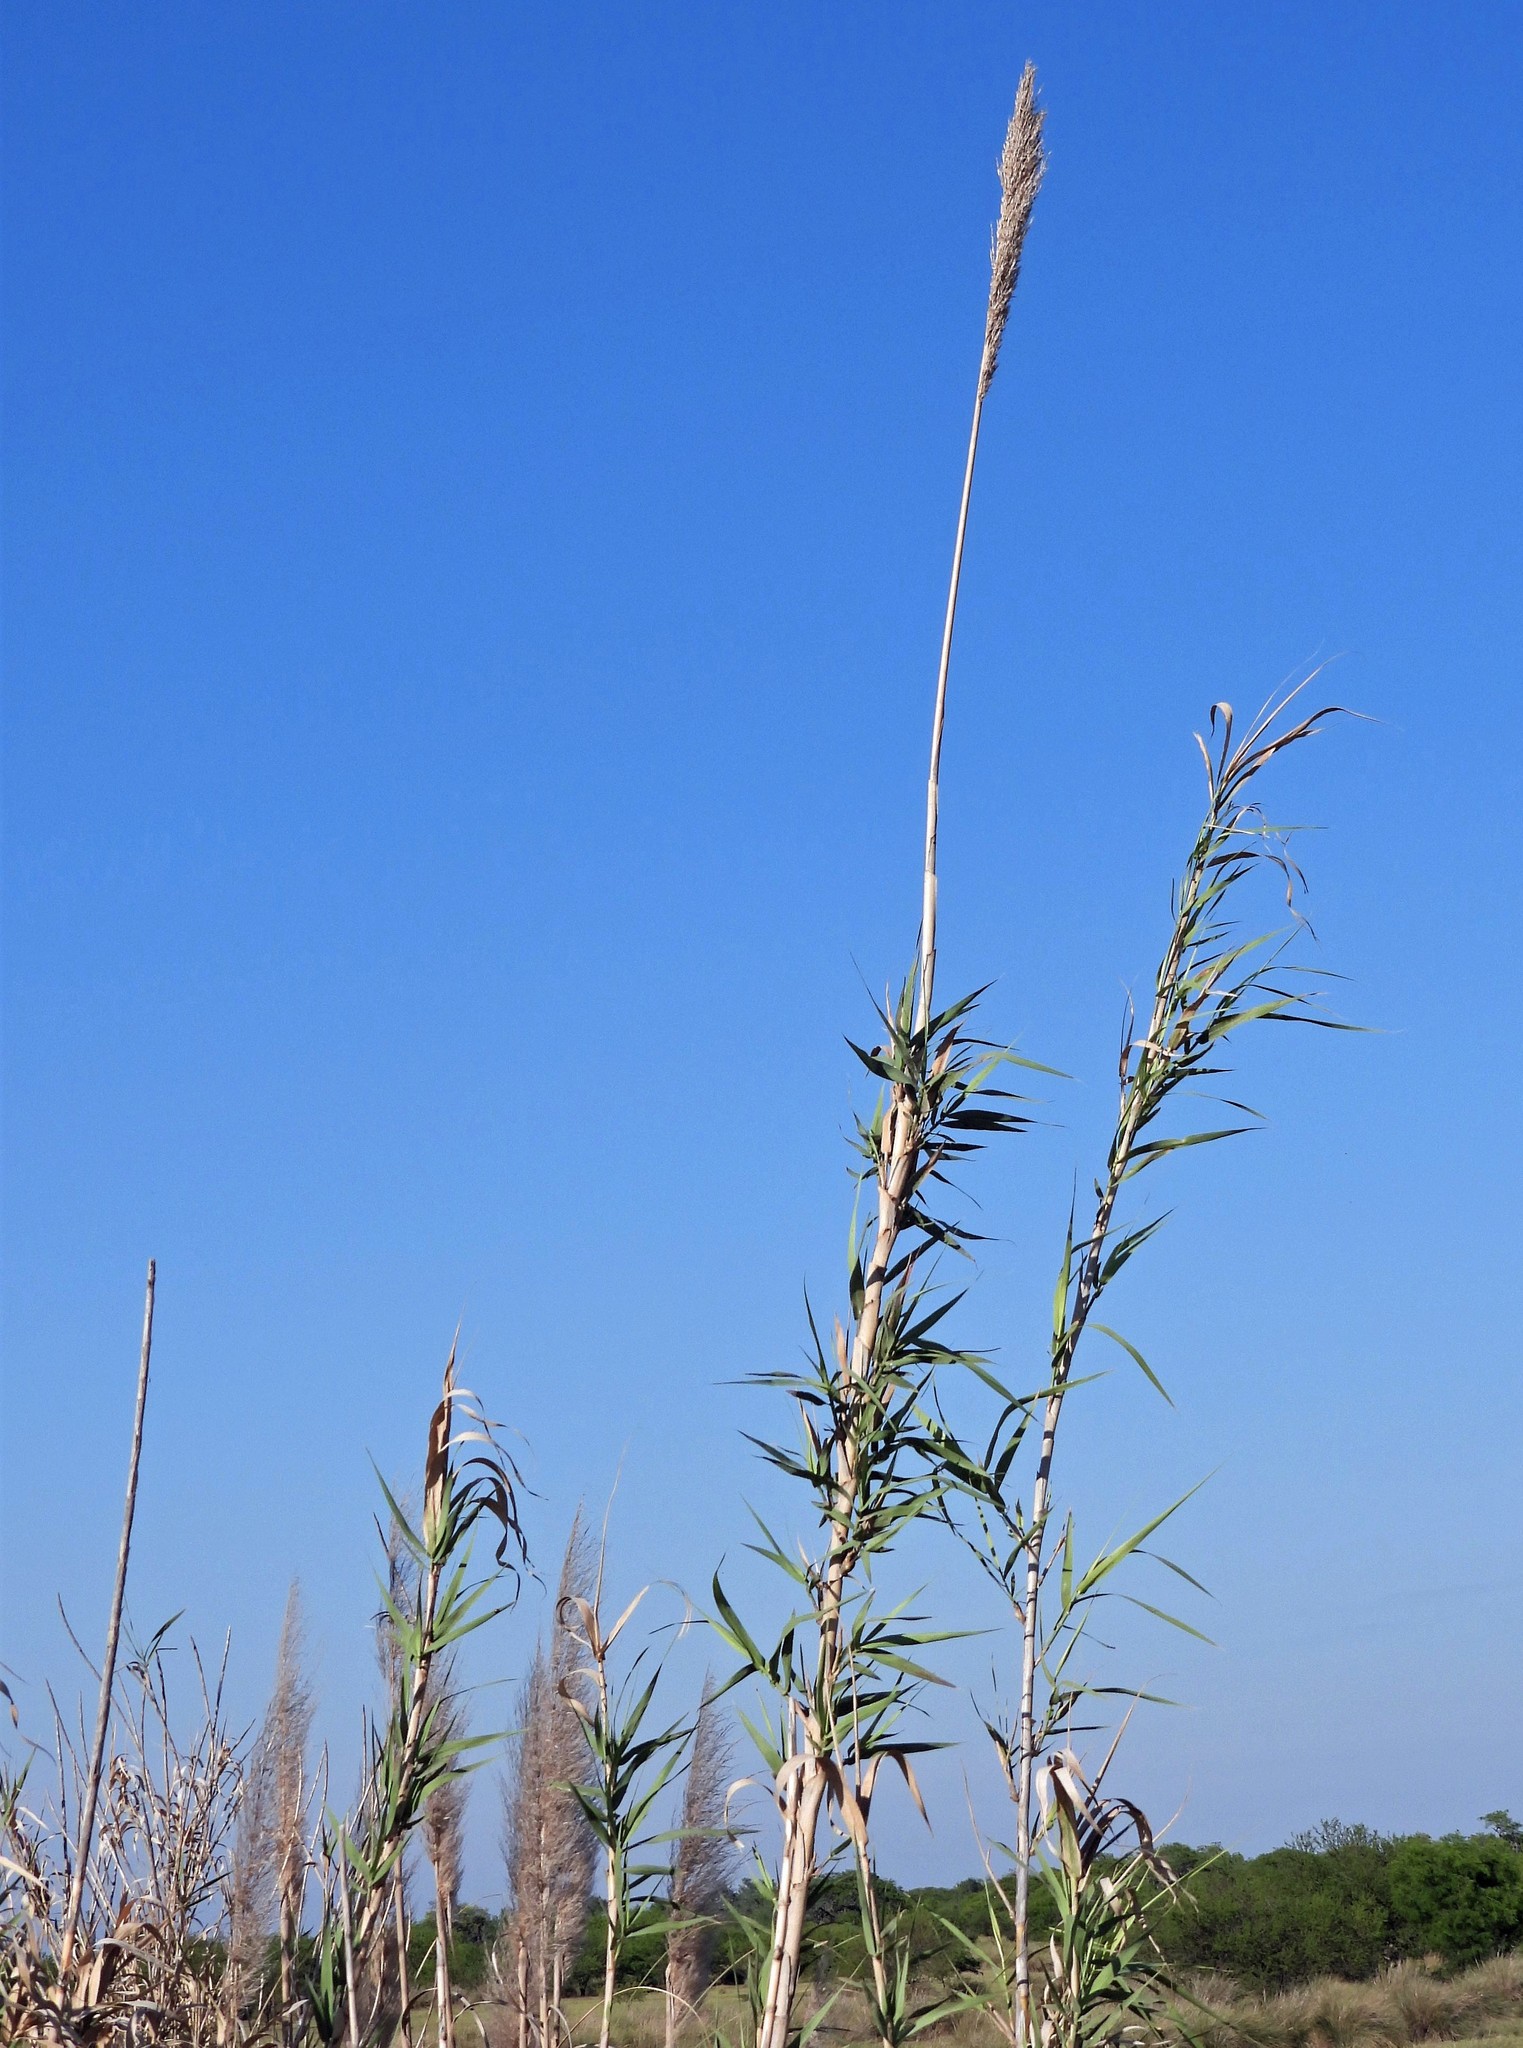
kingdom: Plantae
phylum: Tracheophyta
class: Liliopsida
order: Poales
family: Poaceae
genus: Arundo
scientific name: Arundo donax
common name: Giant reed
